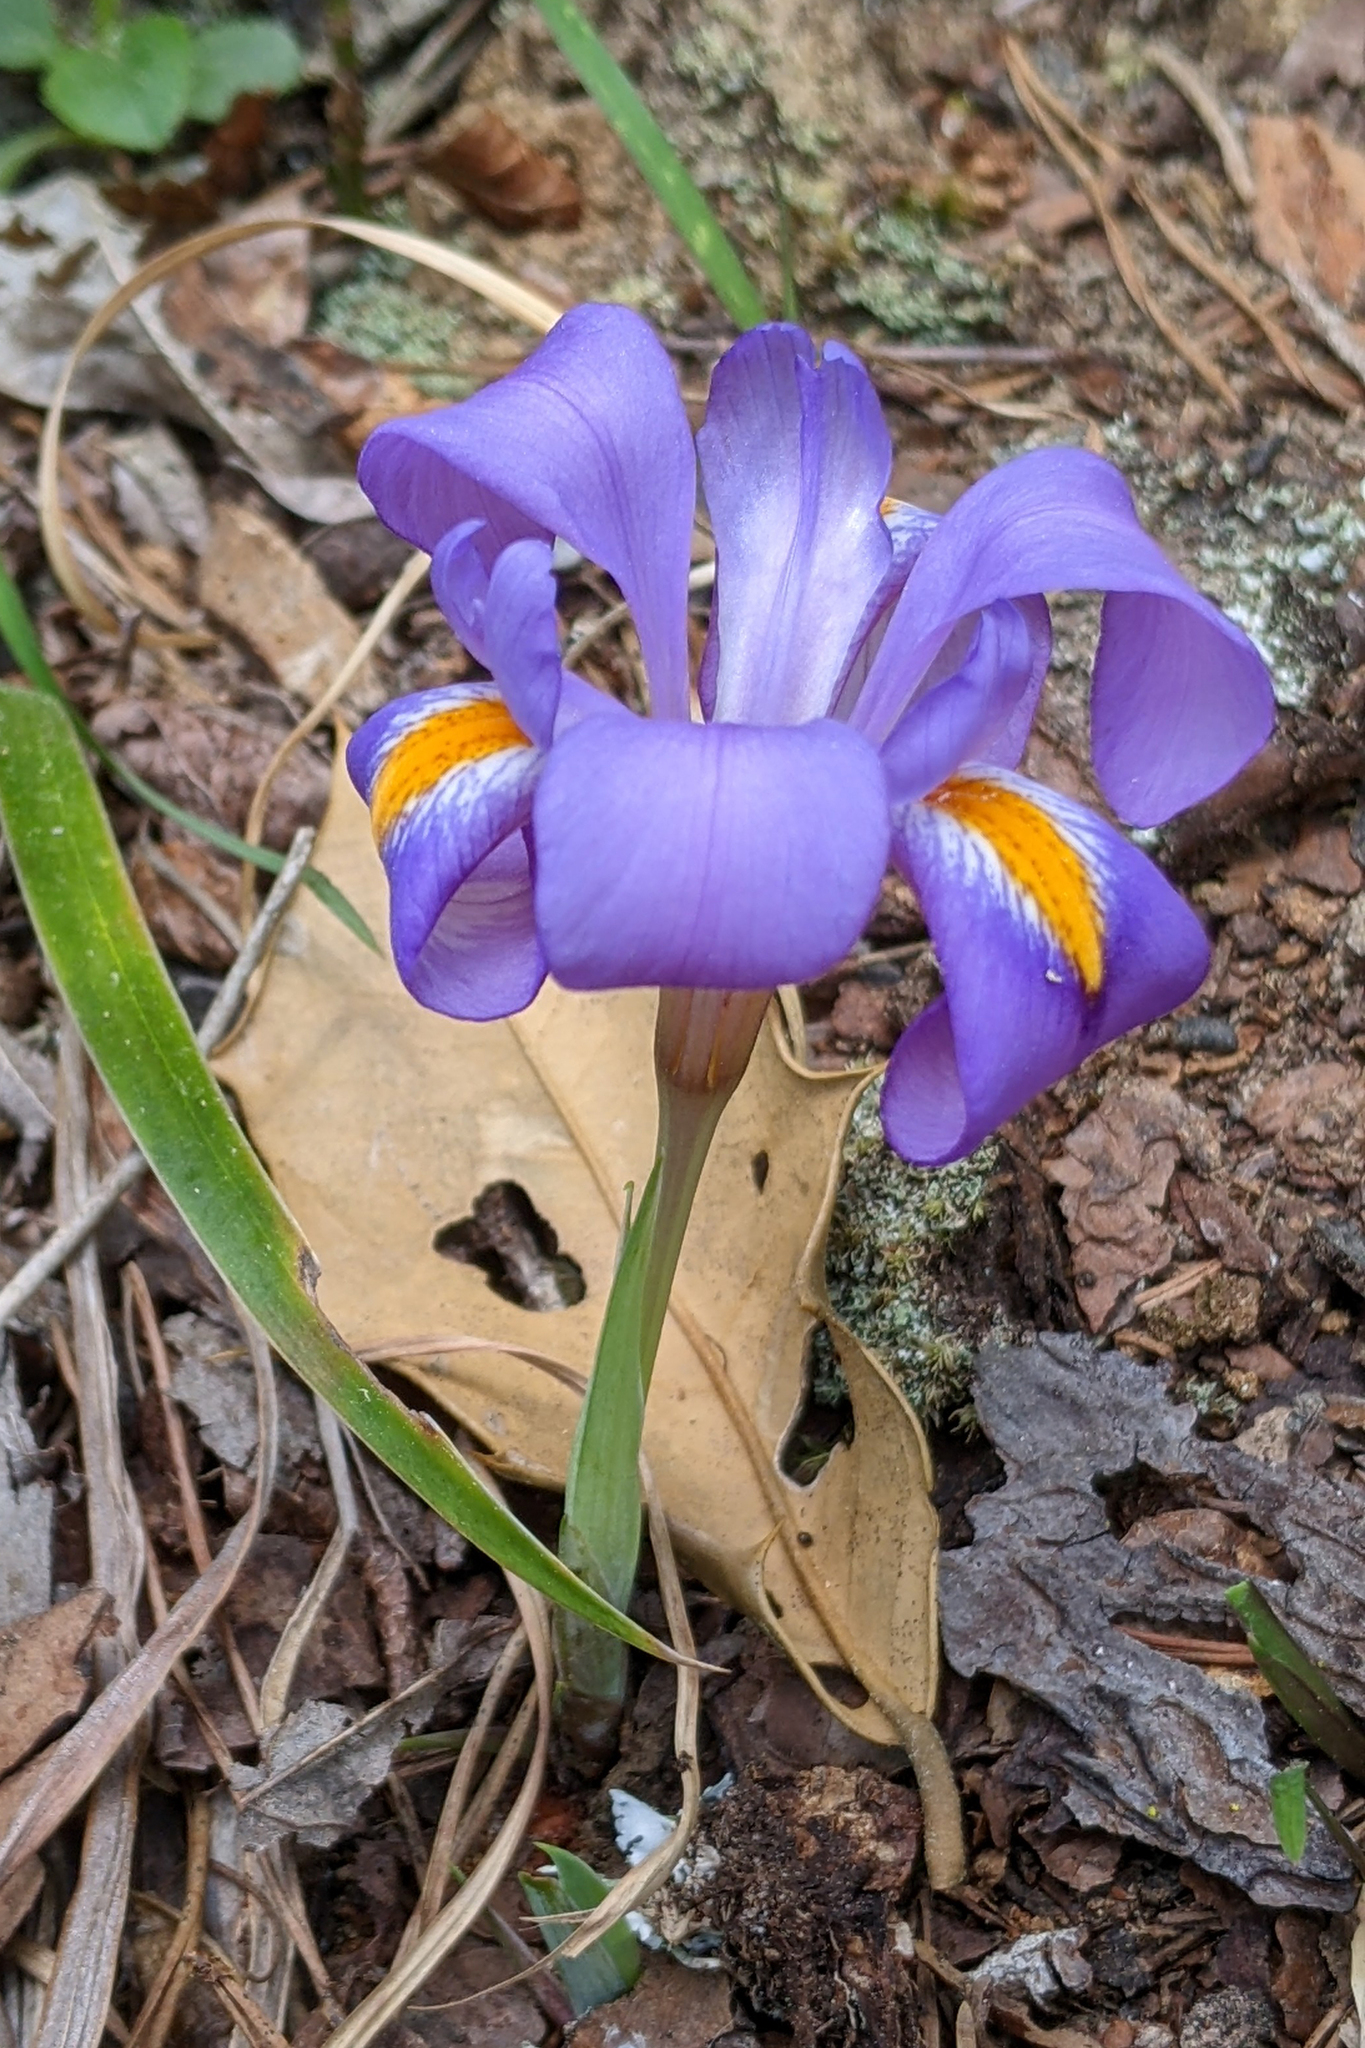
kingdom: Plantae
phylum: Tracheophyta
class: Liliopsida
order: Asparagales
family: Iridaceae
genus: Iris
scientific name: Iris verna
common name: Dwarf iris
